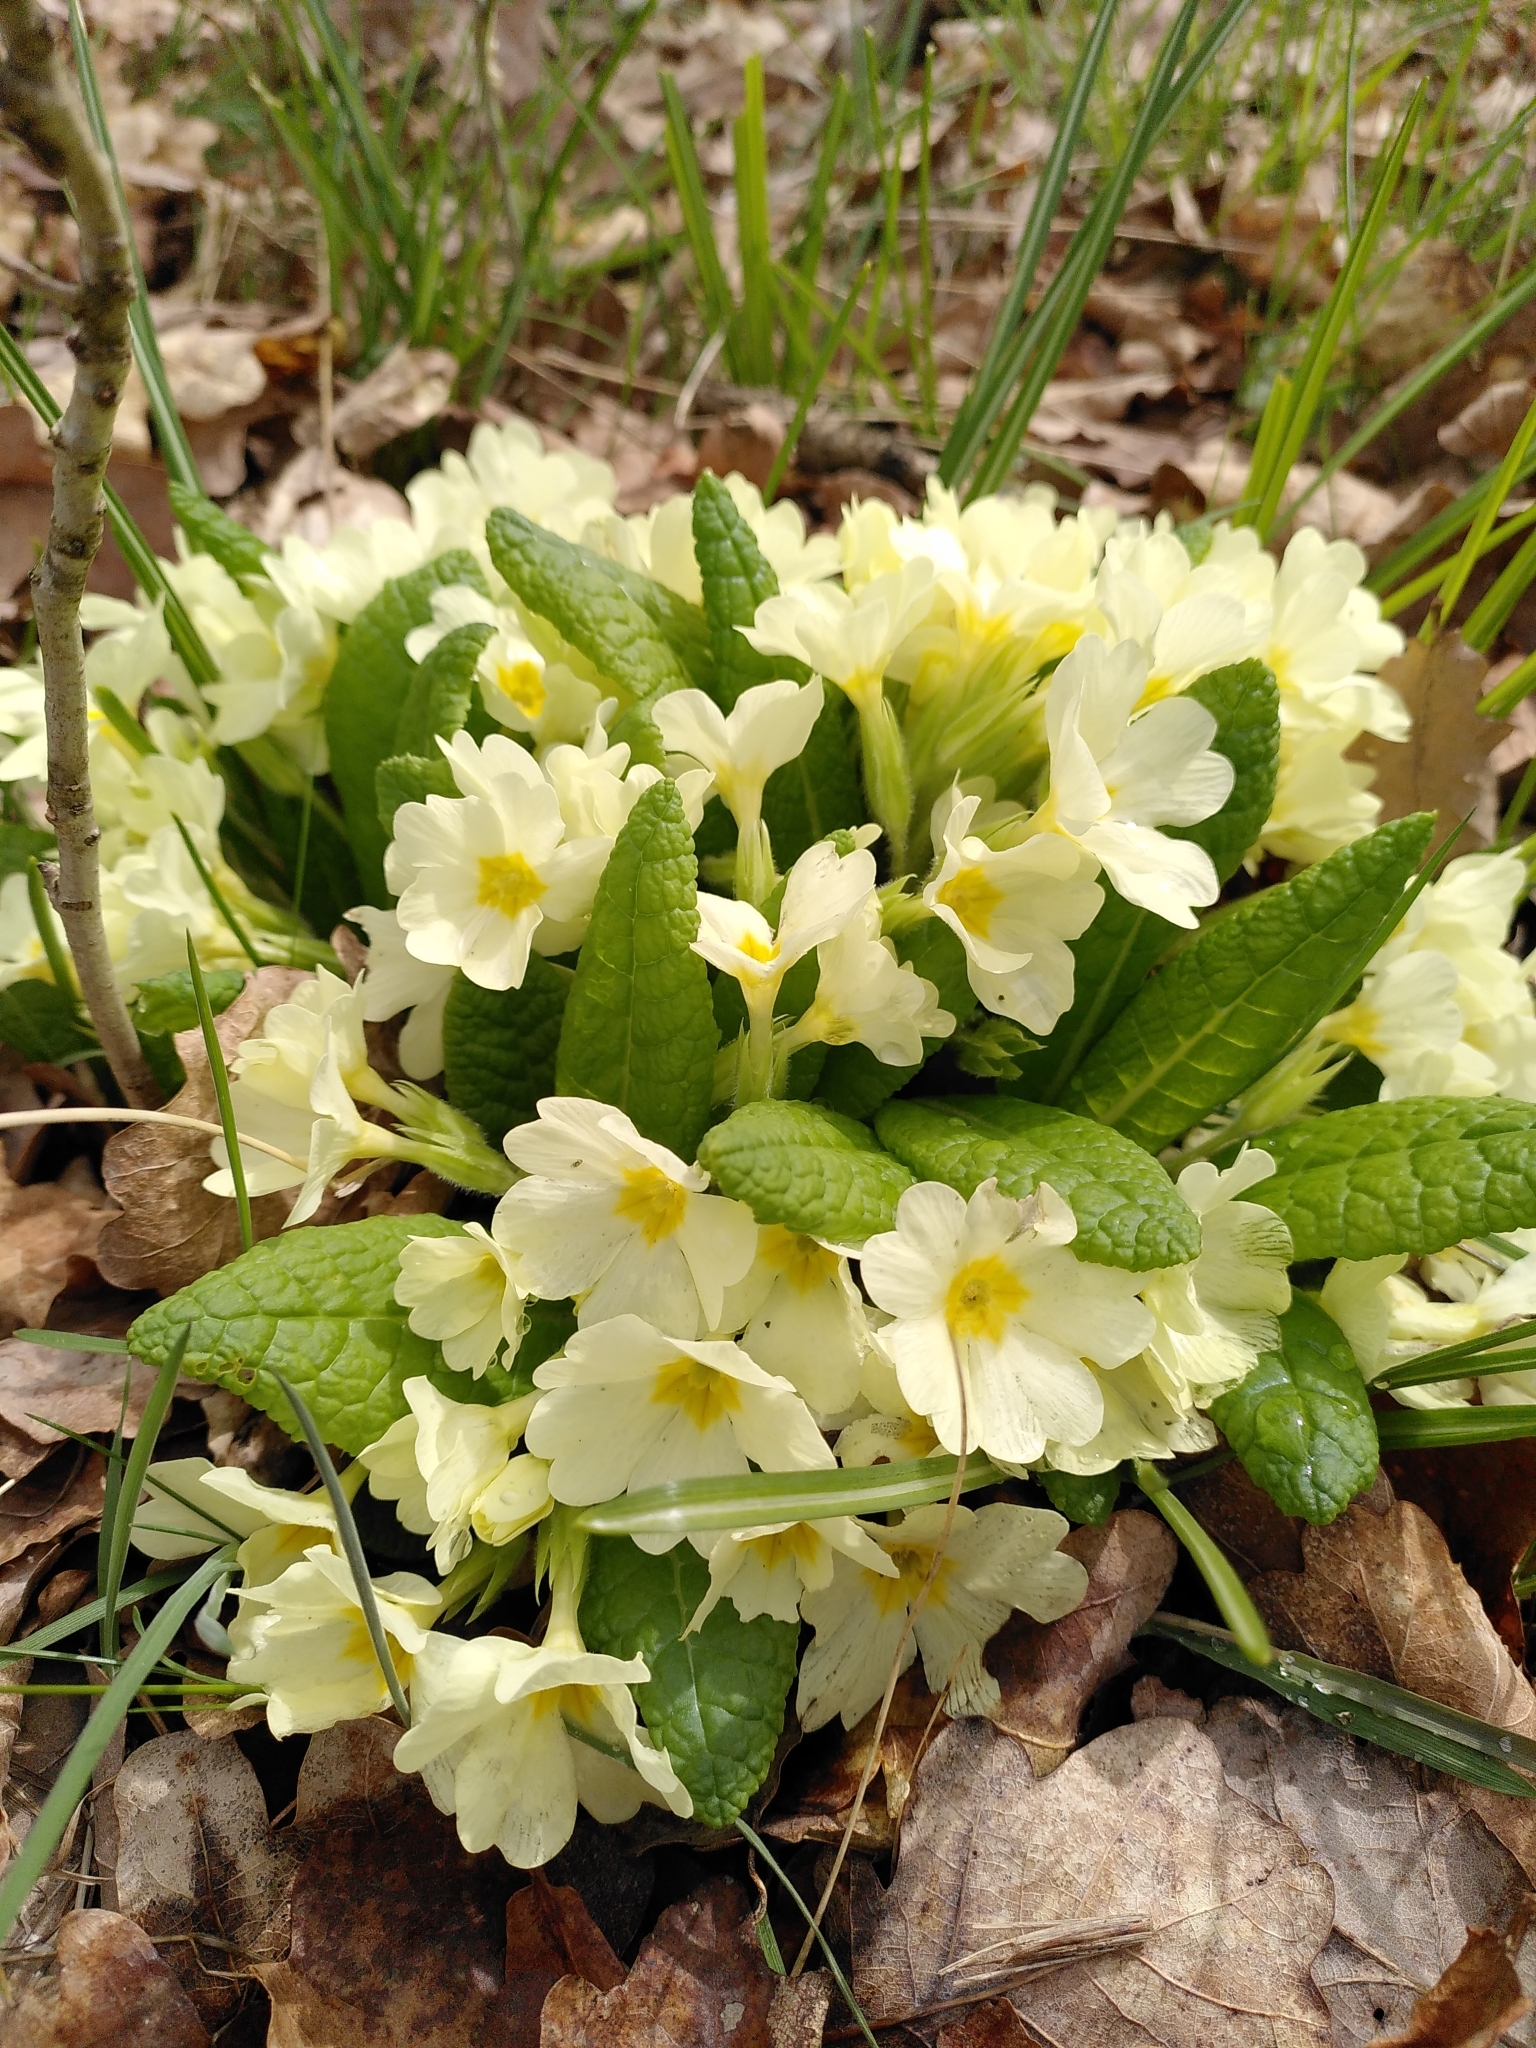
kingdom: Plantae
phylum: Tracheophyta
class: Magnoliopsida
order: Ericales
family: Primulaceae
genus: Primula
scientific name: Primula vulgaris
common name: Primrose
